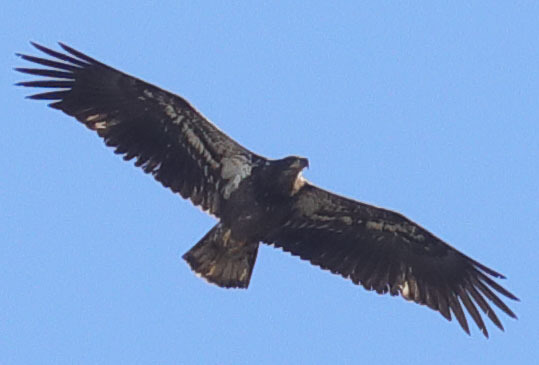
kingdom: Animalia
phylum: Chordata
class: Aves
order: Accipitriformes
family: Accipitridae
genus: Haliaeetus
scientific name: Haliaeetus leucocephalus
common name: Bald eagle
